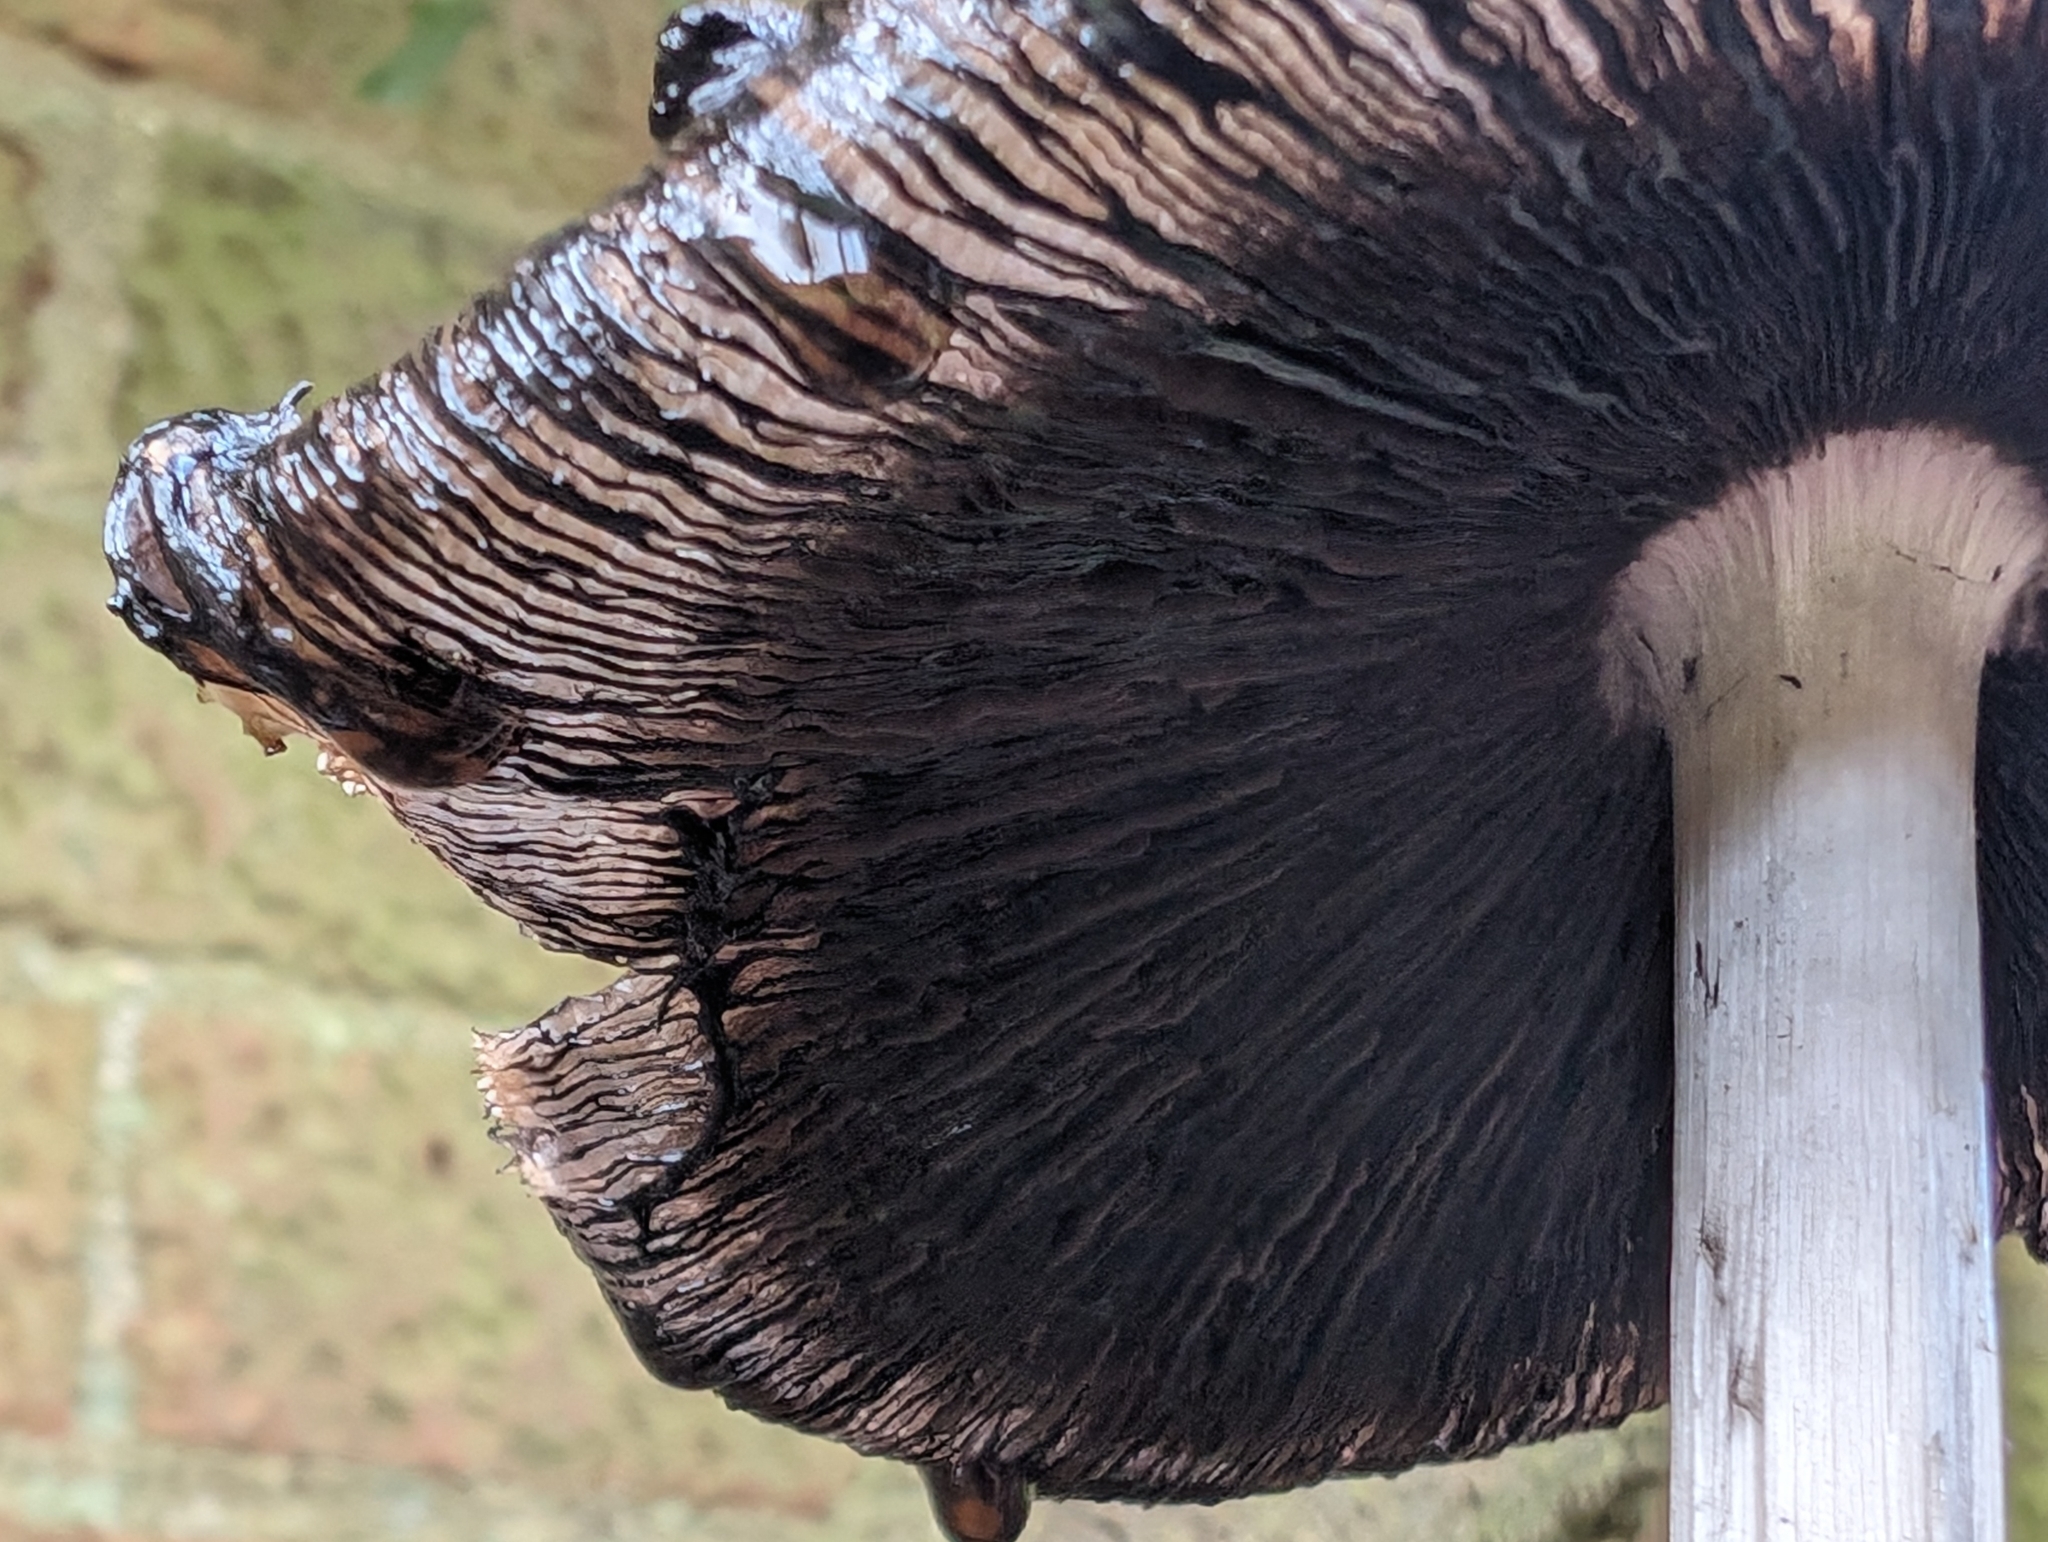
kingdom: Fungi
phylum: Basidiomycota
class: Agaricomycetes
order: Agaricales
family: Psathyrellaceae
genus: Coprinopsis
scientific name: Coprinopsis atramentaria
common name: Common ink-cap
